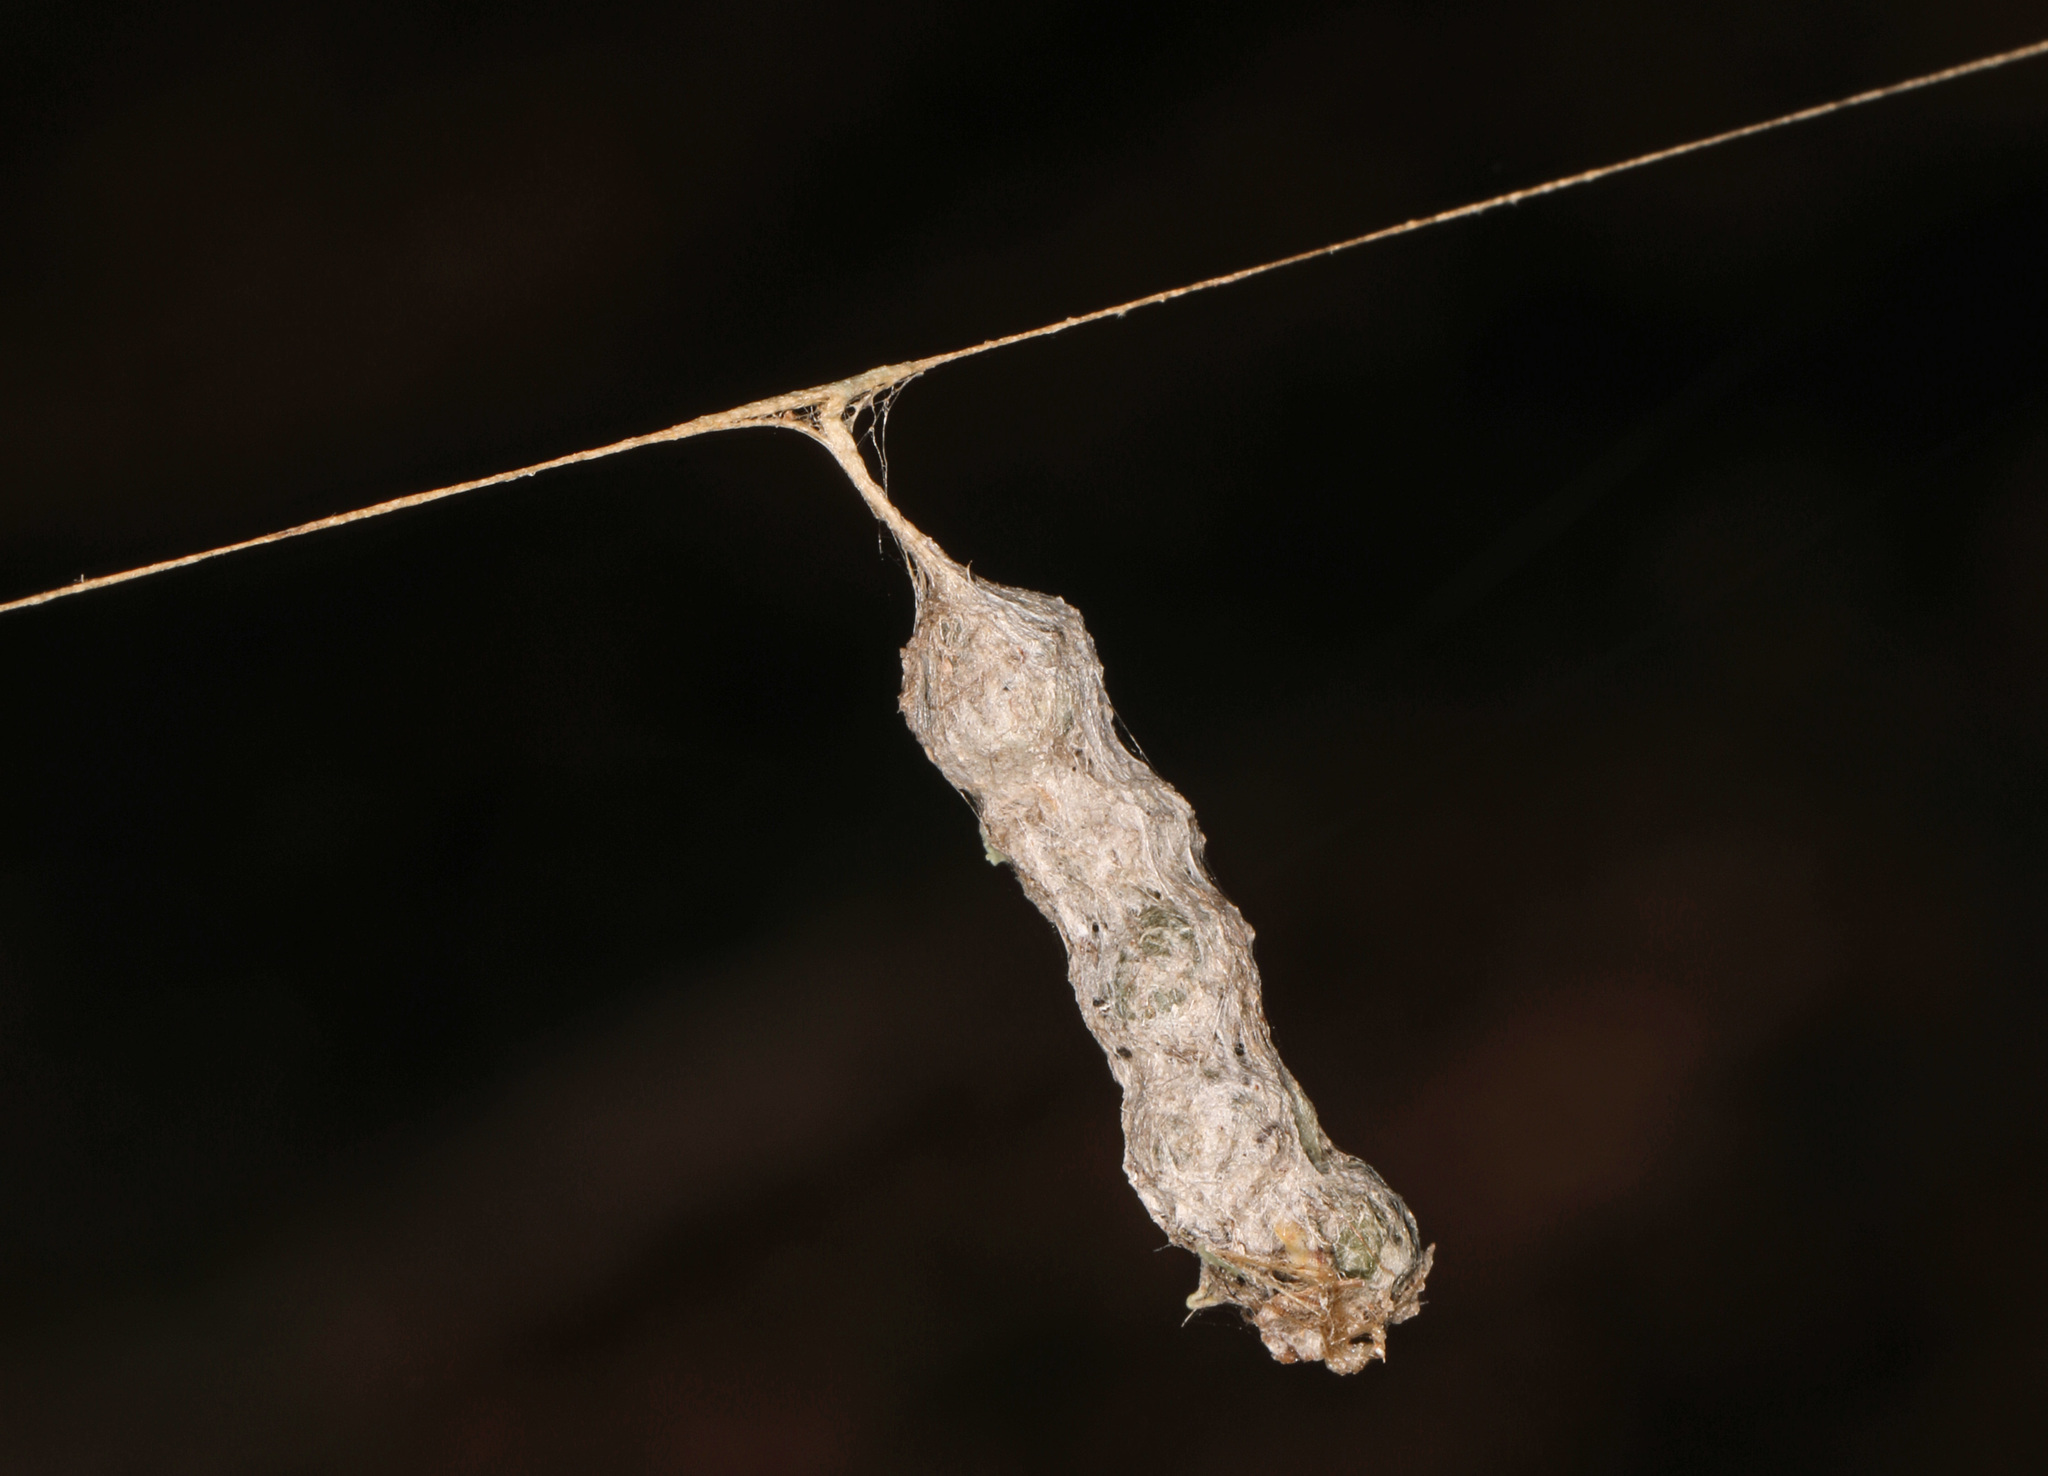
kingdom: Animalia
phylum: Arthropoda
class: Arachnida
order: Araneae
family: Araneidae
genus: Mecynogea
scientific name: Mecynogea lemniscata
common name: Orb weavers
